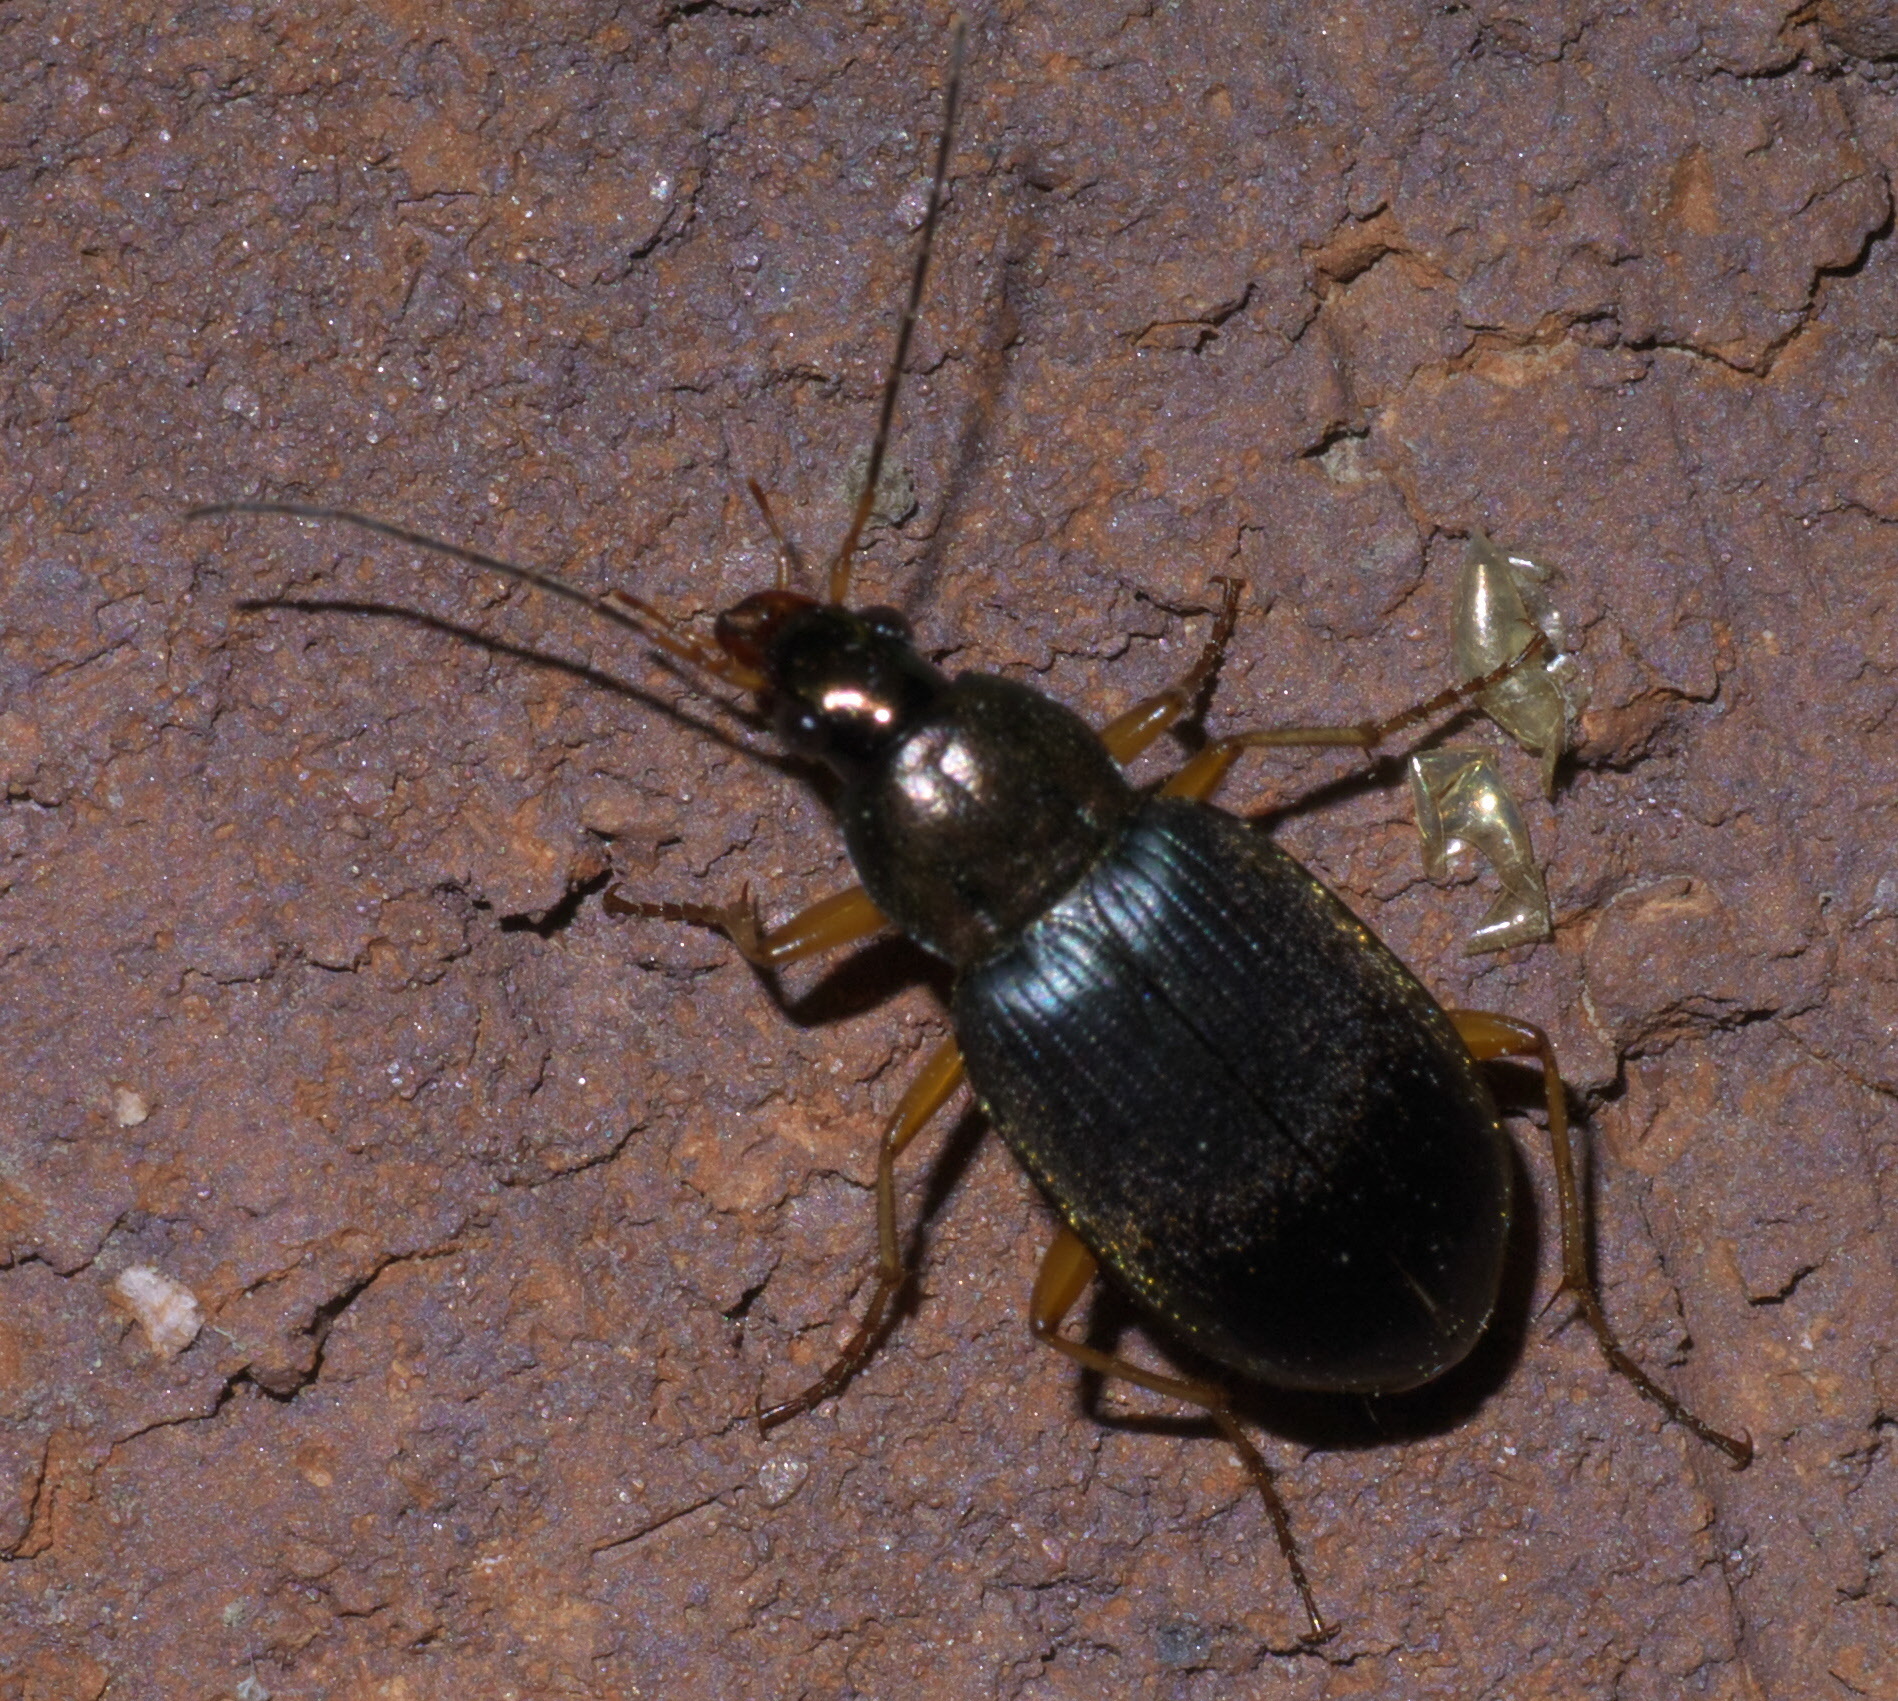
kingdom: Animalia
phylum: Arthropoda
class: Insecta
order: Coleoptera
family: Carabidae
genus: Chlaenius
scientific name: Chlaenius tricolor
